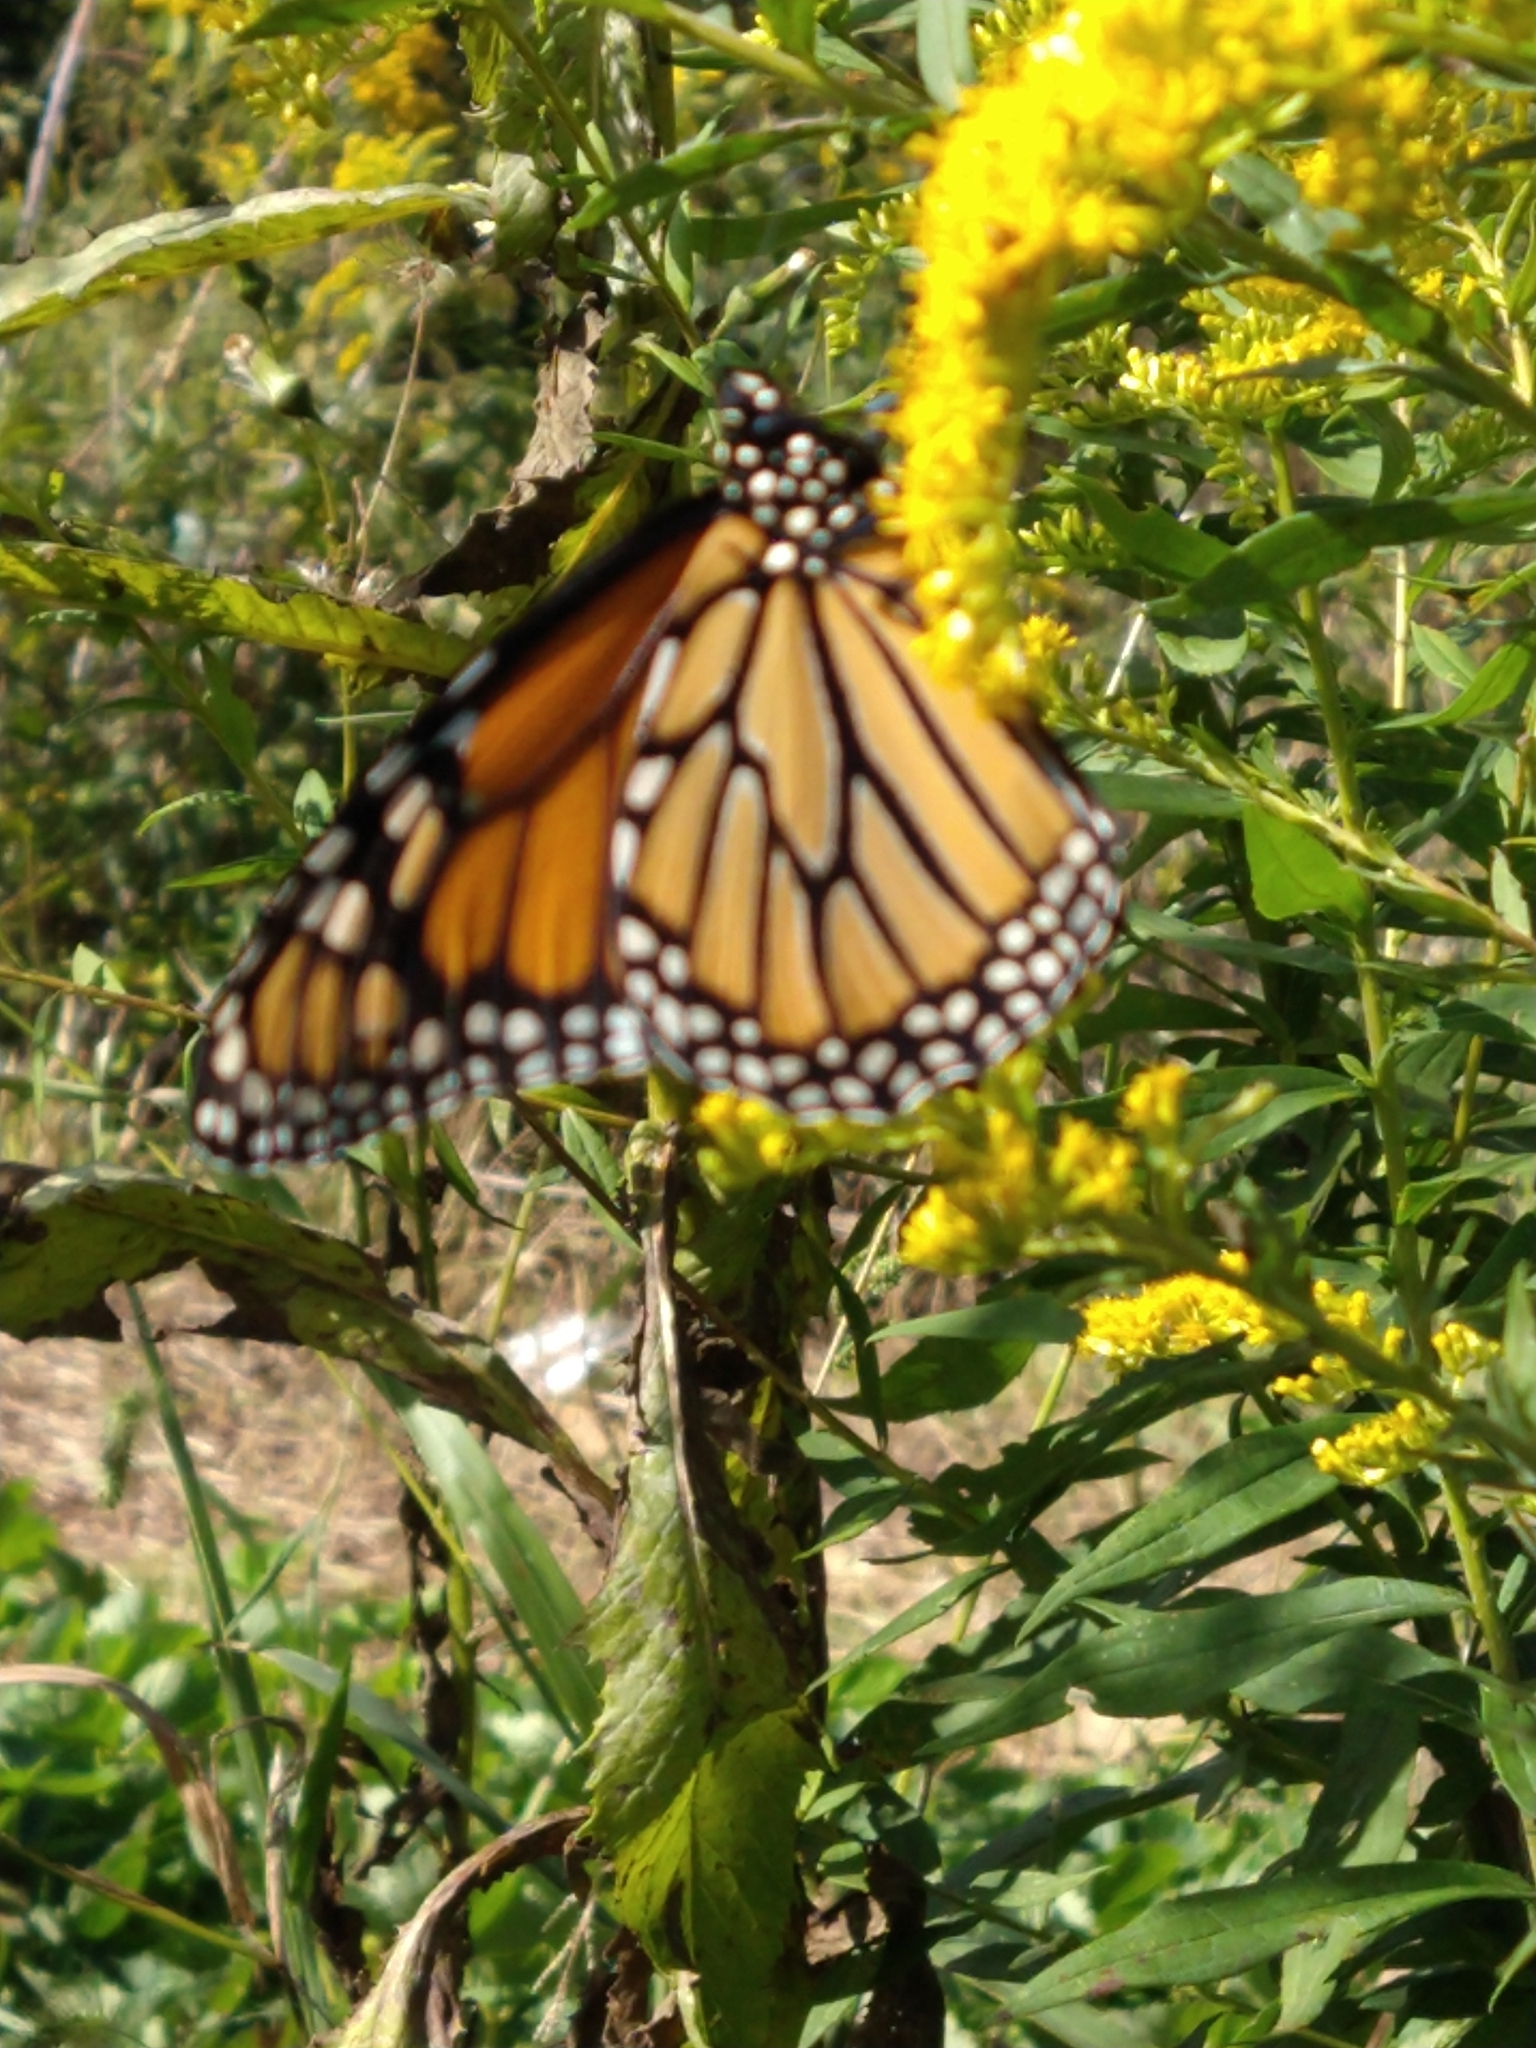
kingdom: Animalia
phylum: Arthropoda
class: Insecta
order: Lepidoptera
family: Nymphalidae
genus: Danaus
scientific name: Danaus plexippus
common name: Monarch
